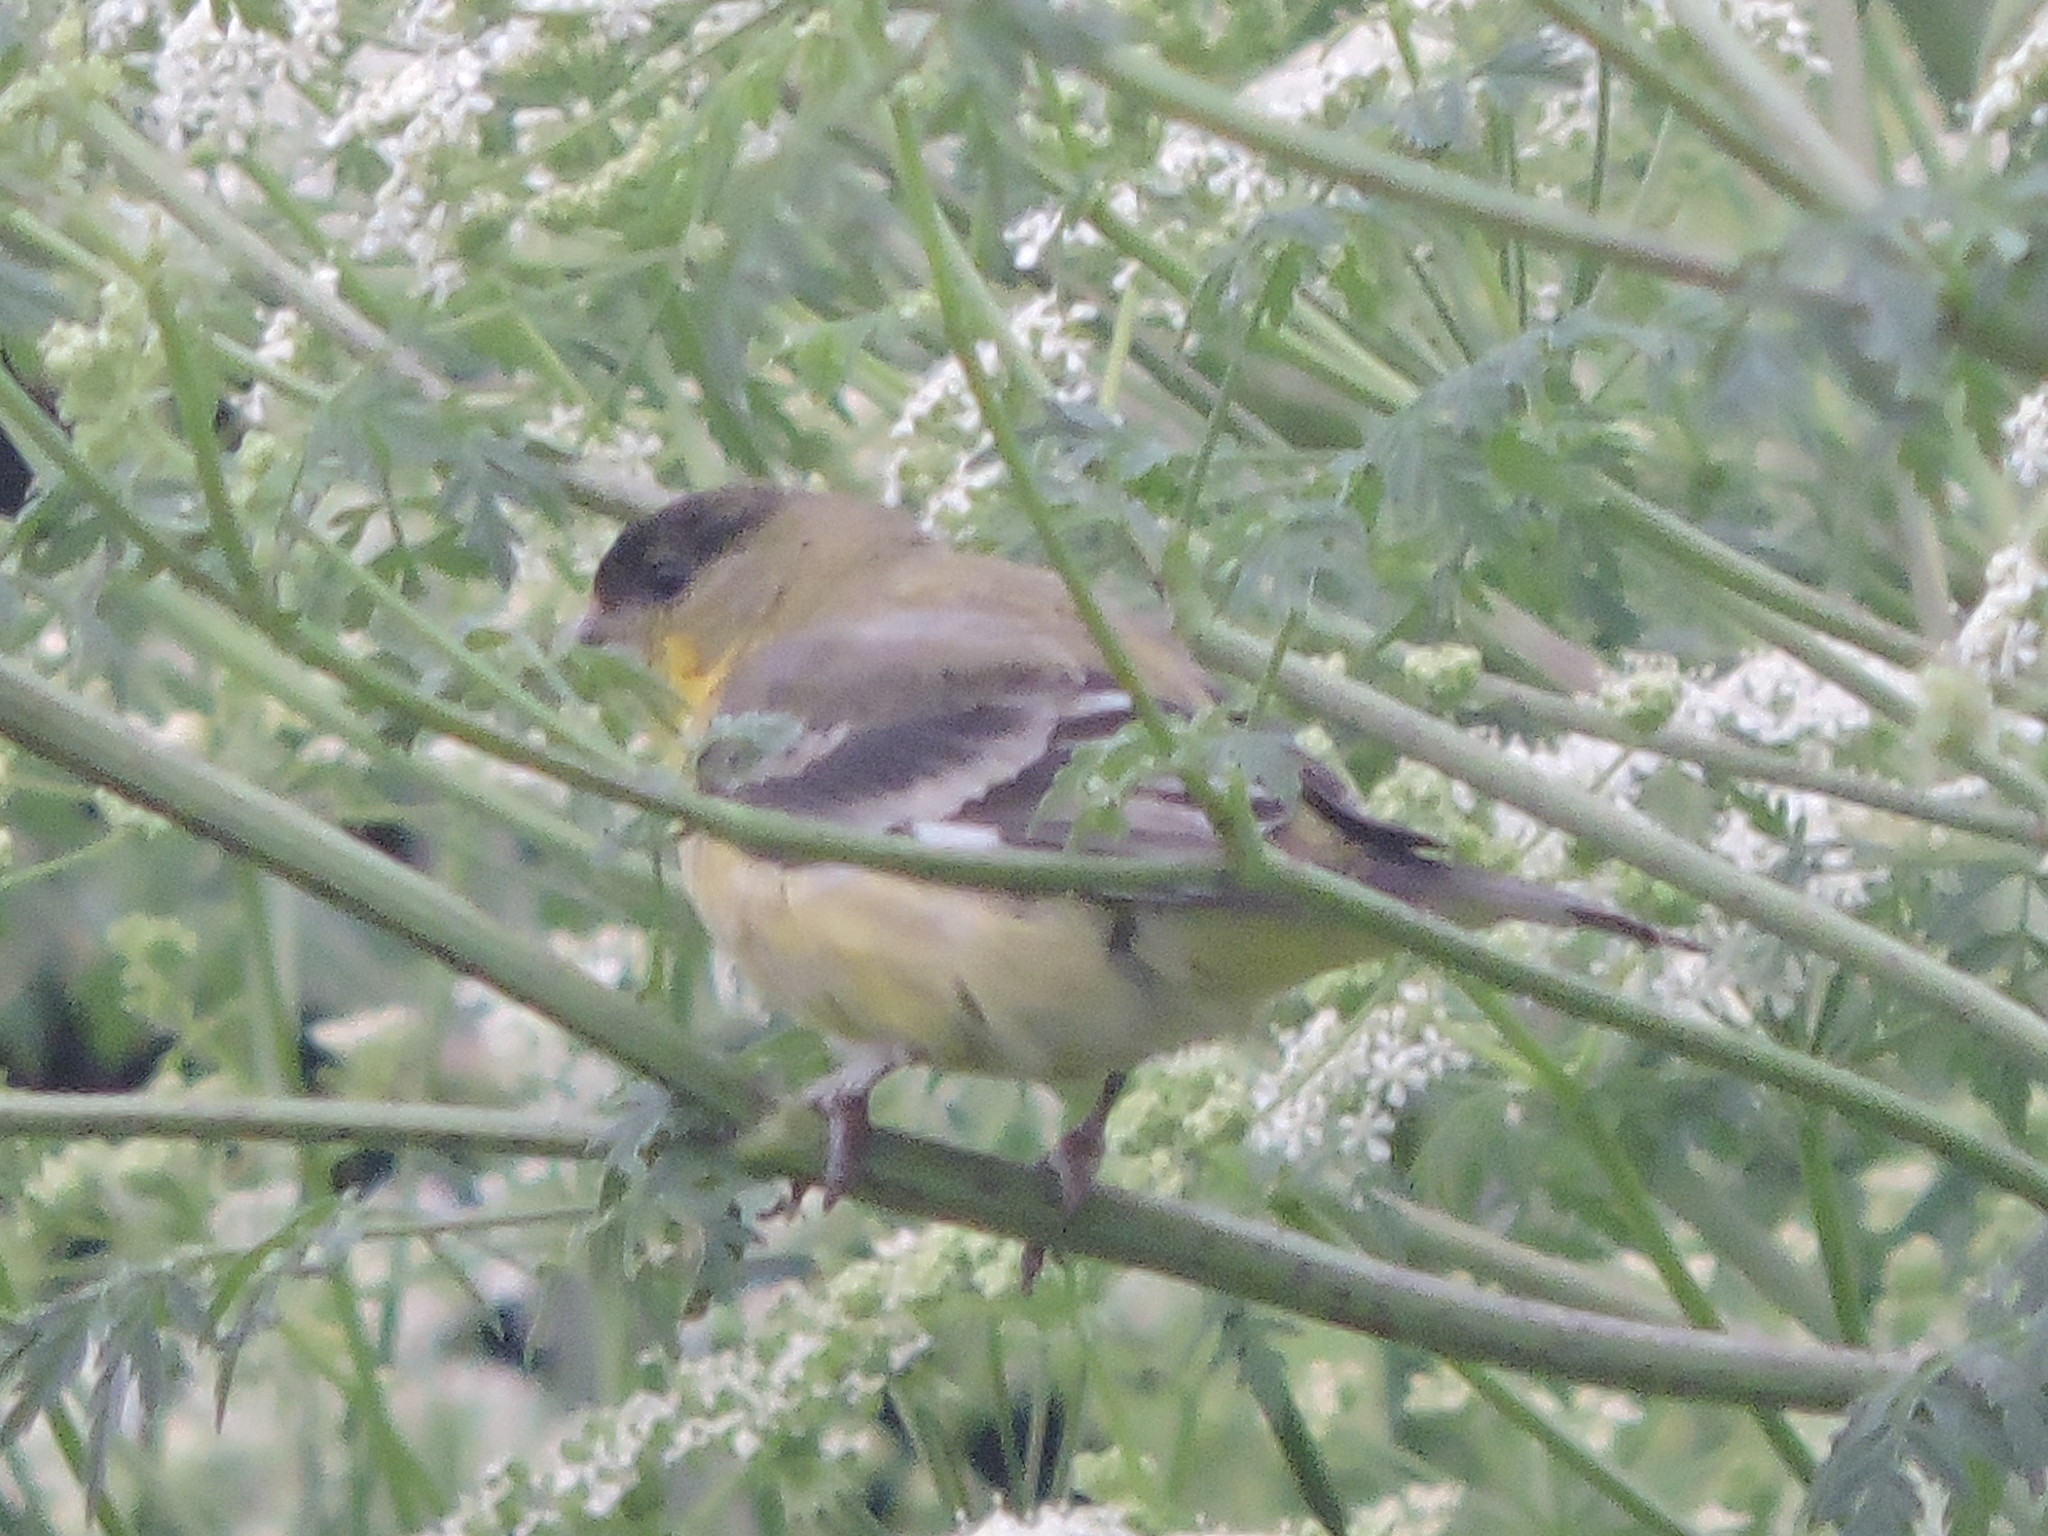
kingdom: Animalia
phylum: Chordata
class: Aves
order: Passeriformes
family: Fringillidae
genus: Spinus
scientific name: Spinus psaltria
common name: Lesser goldfinch
